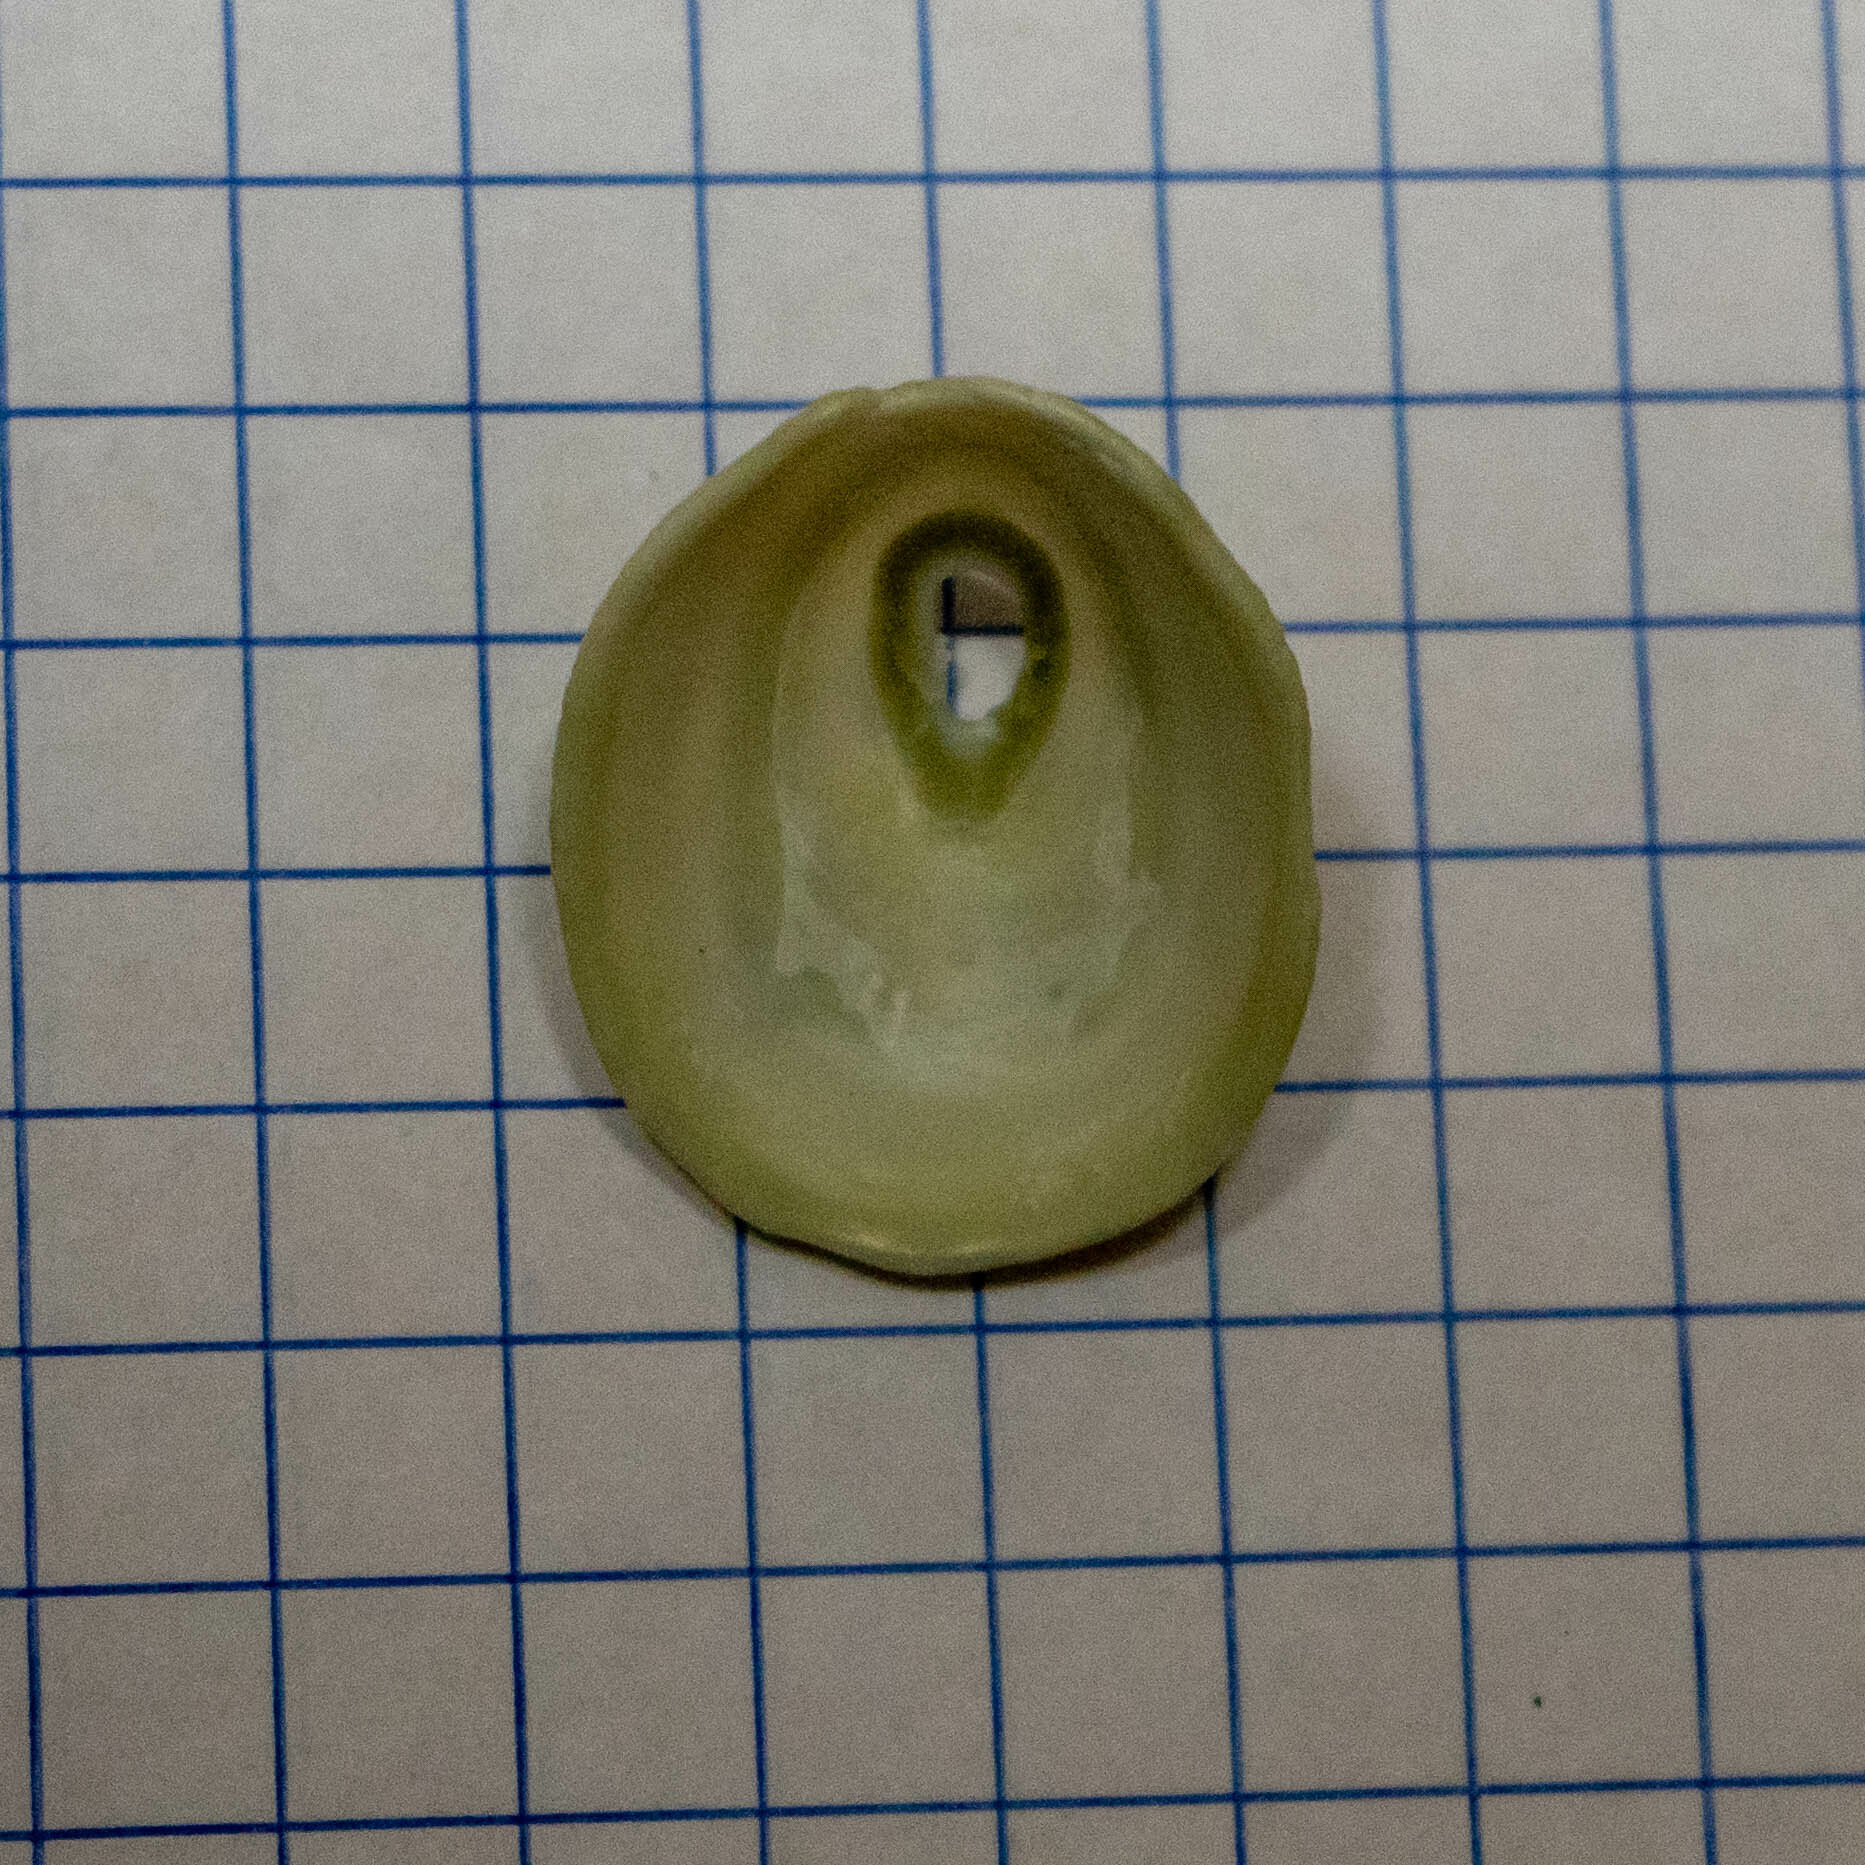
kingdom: Animalia
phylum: Mollusca
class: Gastropoda
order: Lepetellida
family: Fissurellidae
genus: Fissurella
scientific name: Fissurella virescens
